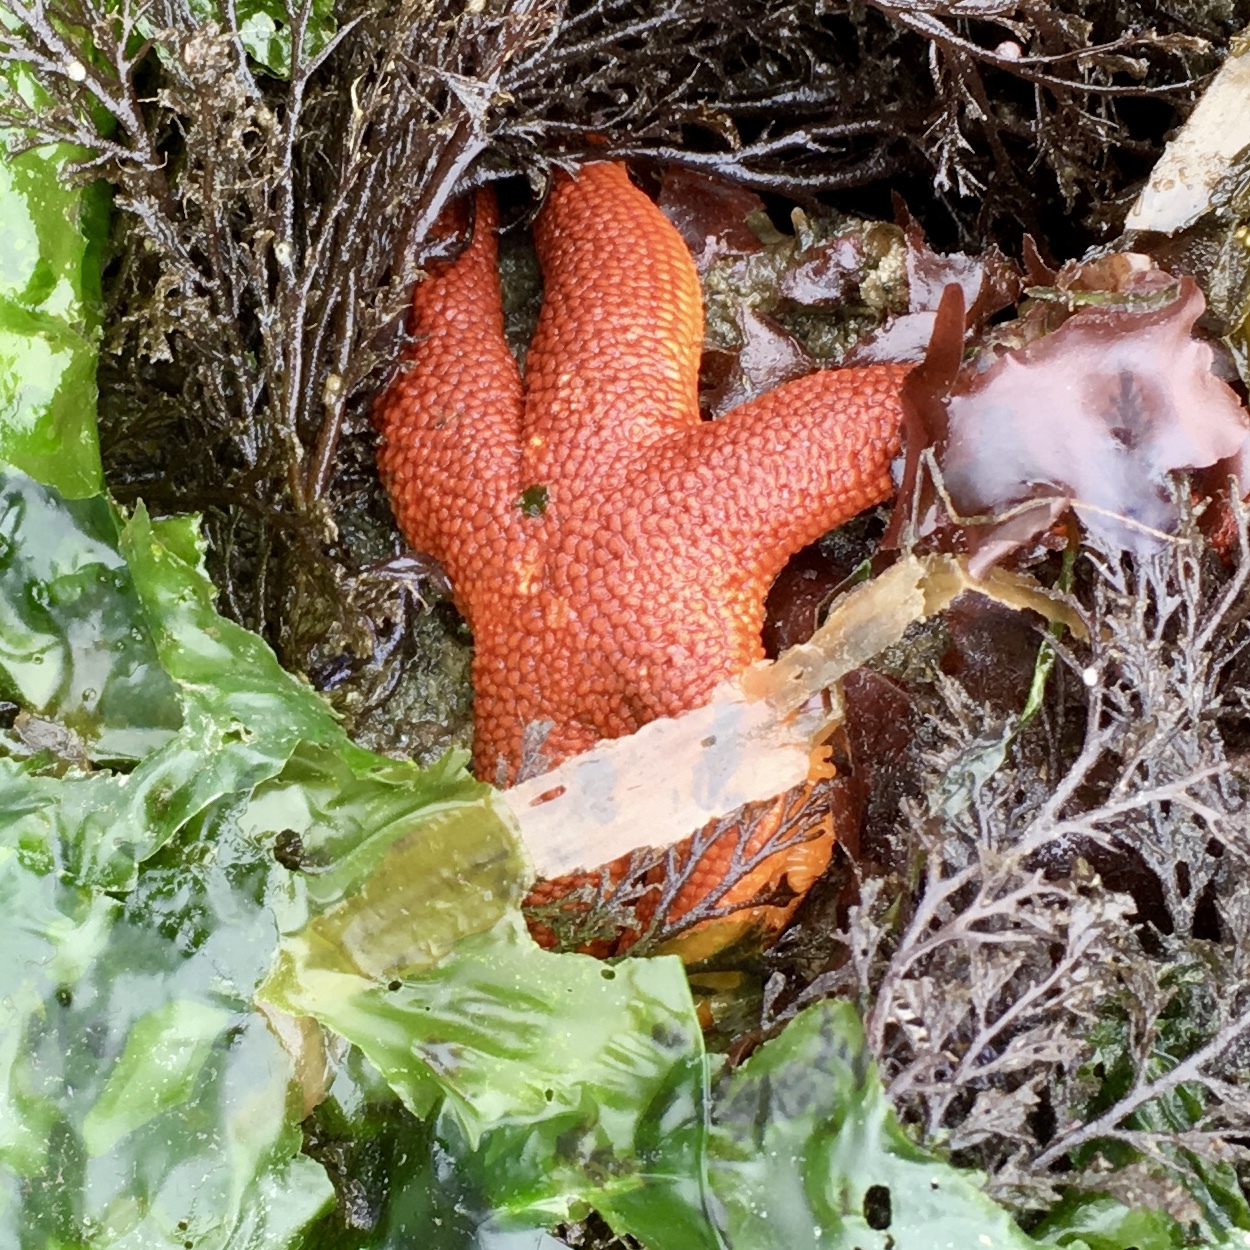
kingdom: Animalia
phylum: Echinodermata
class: Asteroidea
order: Spinulosida
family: Echinasteridae
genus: Henricia
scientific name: Henricia
